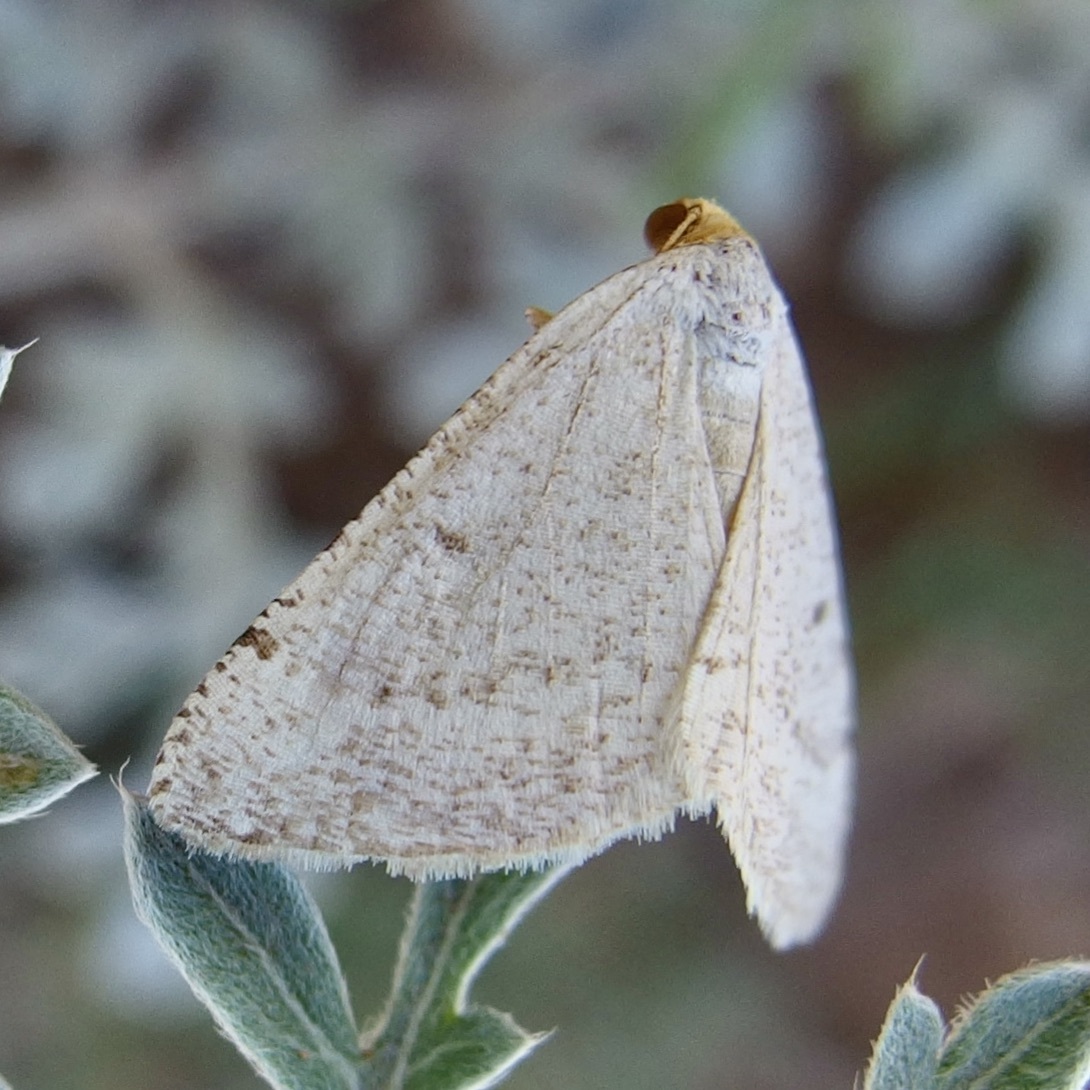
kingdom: Animalia
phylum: Arthropoda
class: Insecta
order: Lepidoptera
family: Geometridae
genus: Macaria
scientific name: Macaria mendicata
